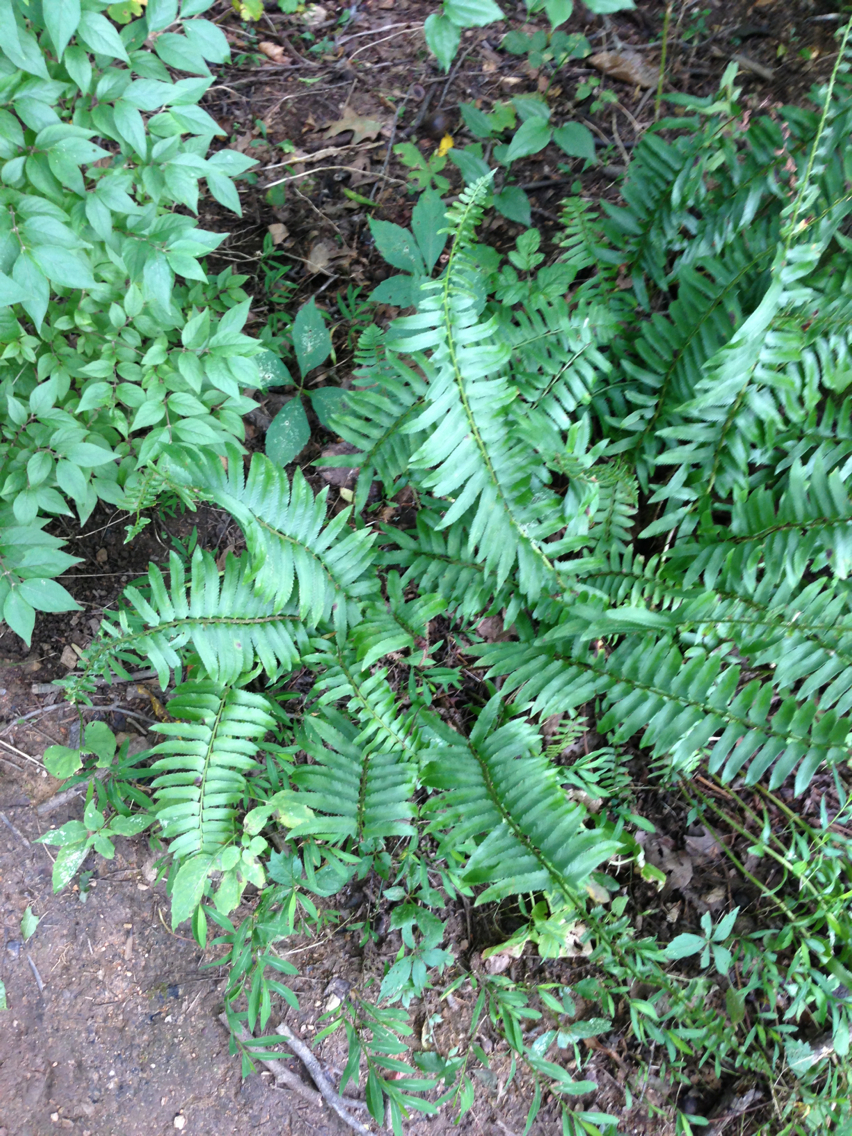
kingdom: Plantae
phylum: Tracheophyta
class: Polypodiopsida
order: Polypodiales
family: Dryopteridaceae
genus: Polystichum
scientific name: Polystichum acrostichoides
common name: Christmas fern
